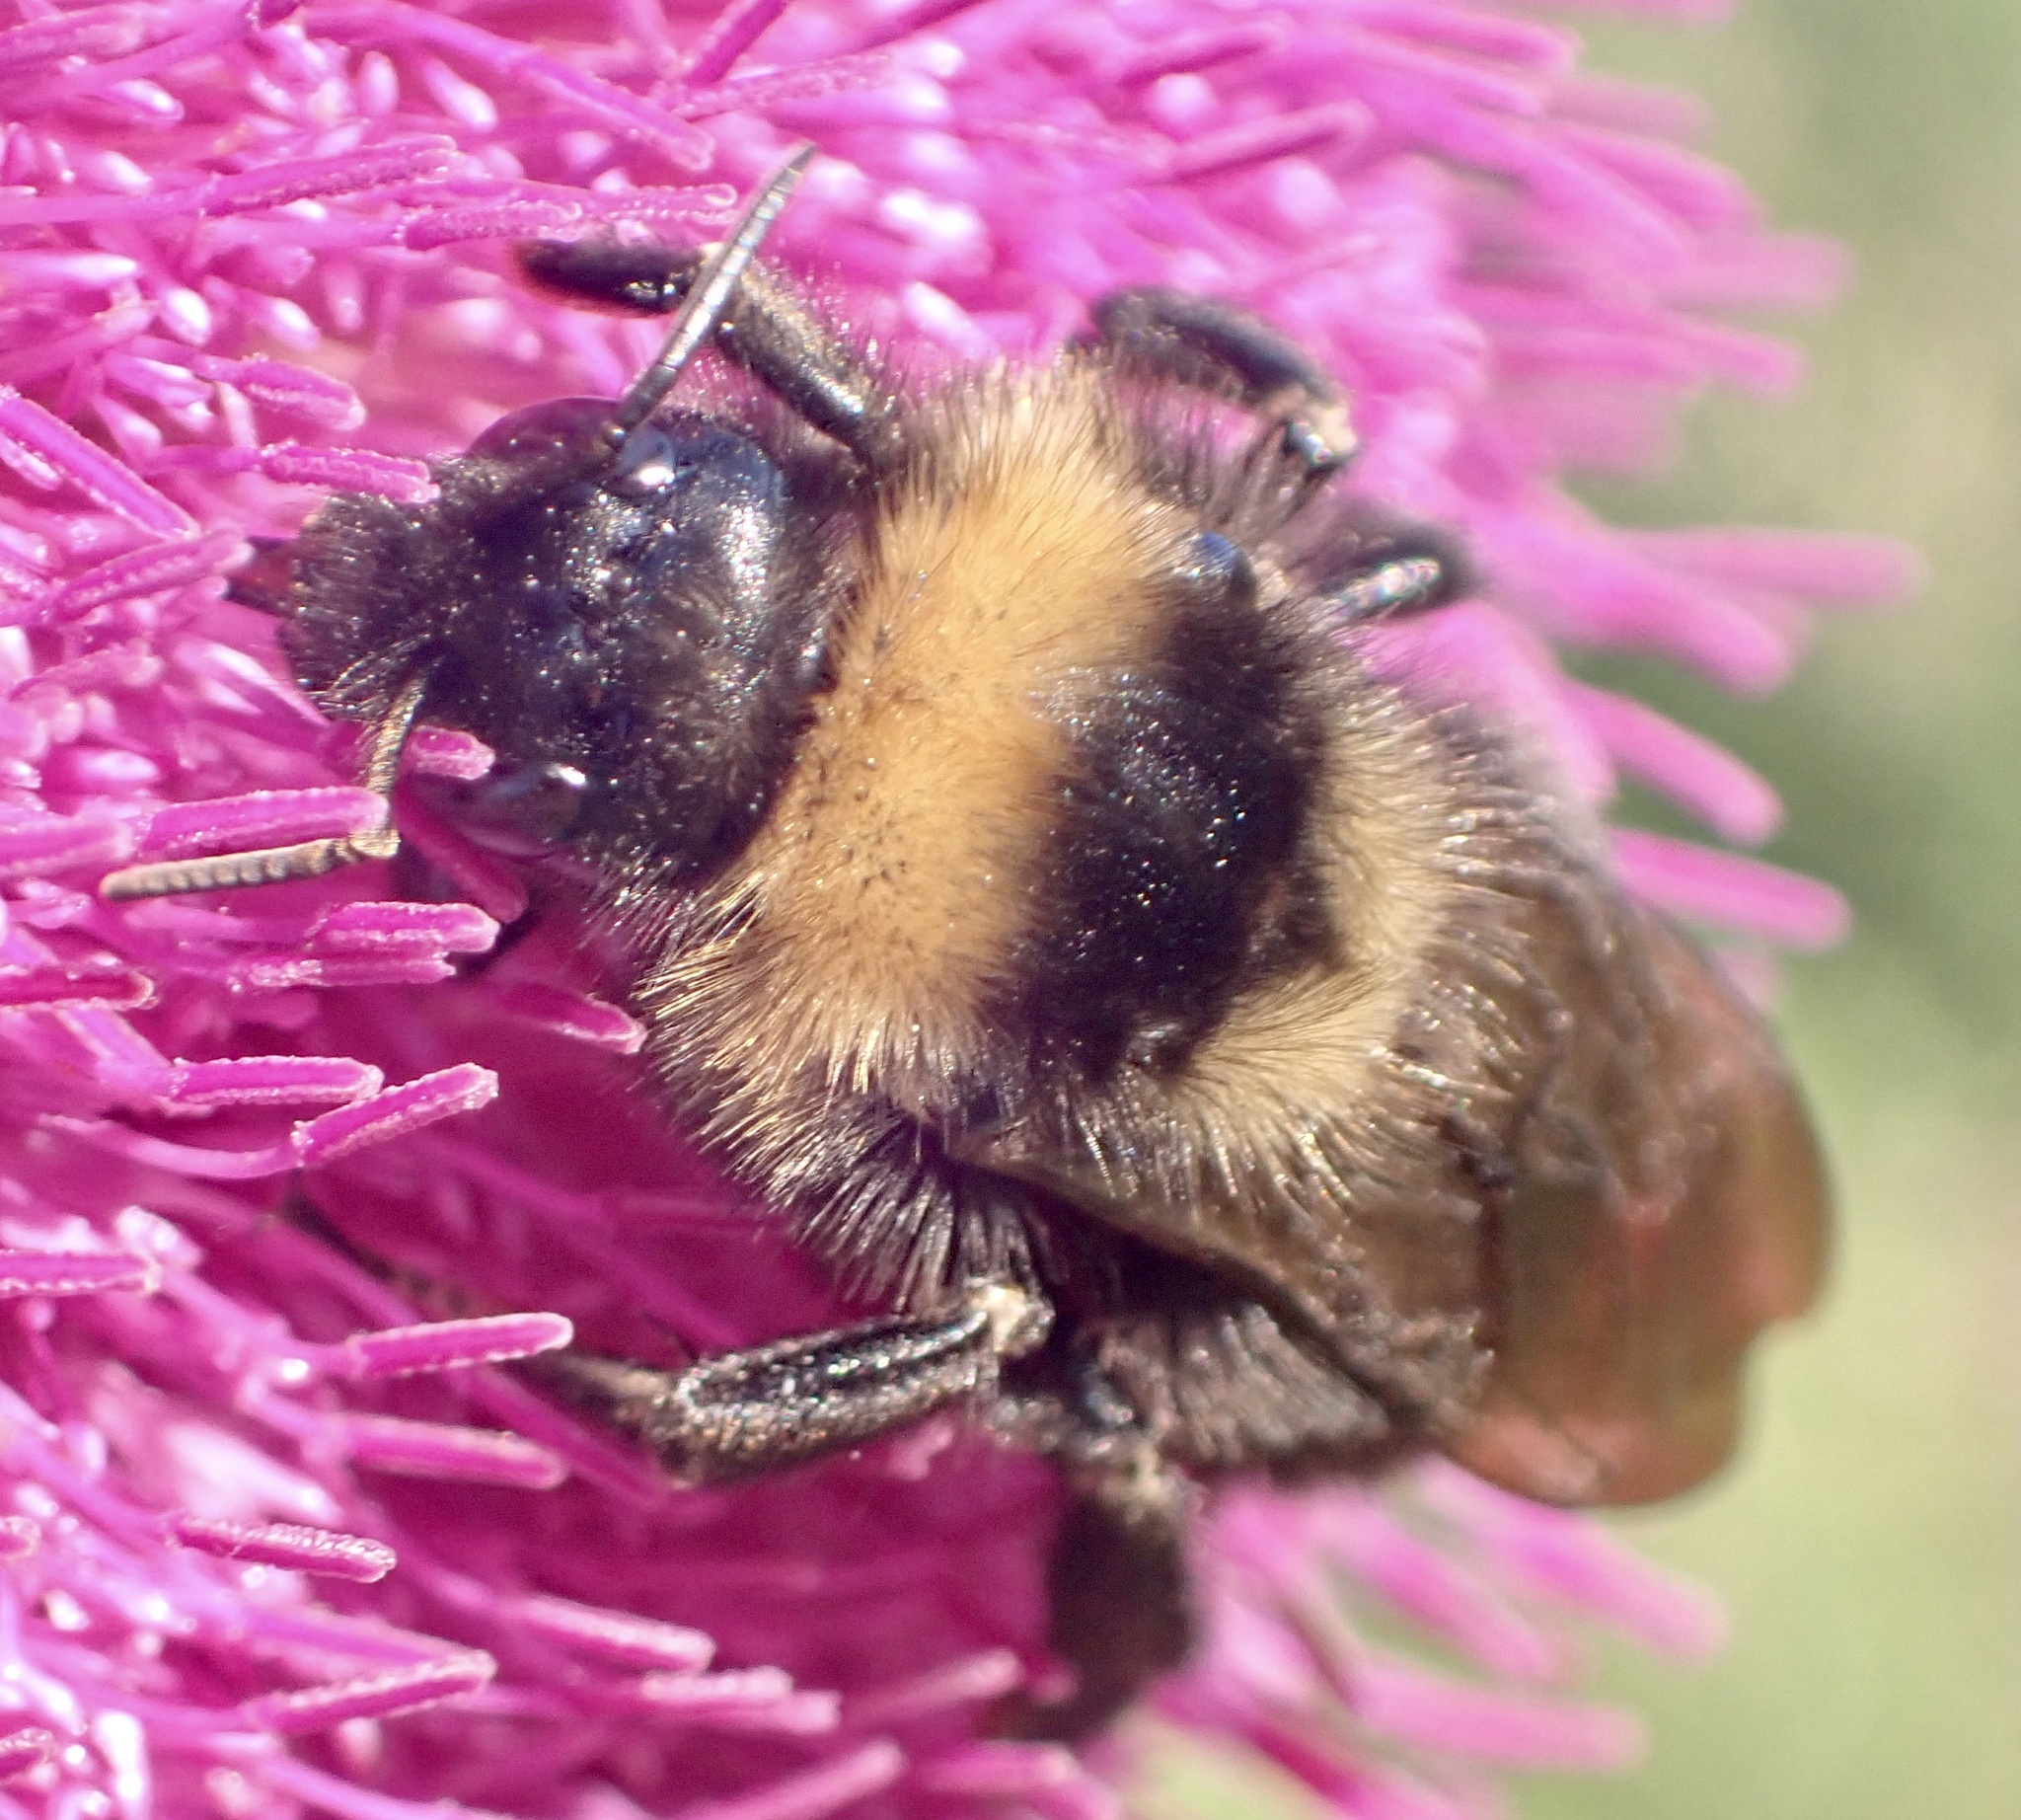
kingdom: Animalia
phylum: Arthropoda
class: Insecta
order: Hymenoptera
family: Apidae
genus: Bombus
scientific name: Bombus campestris
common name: Field cuckoo-bee
